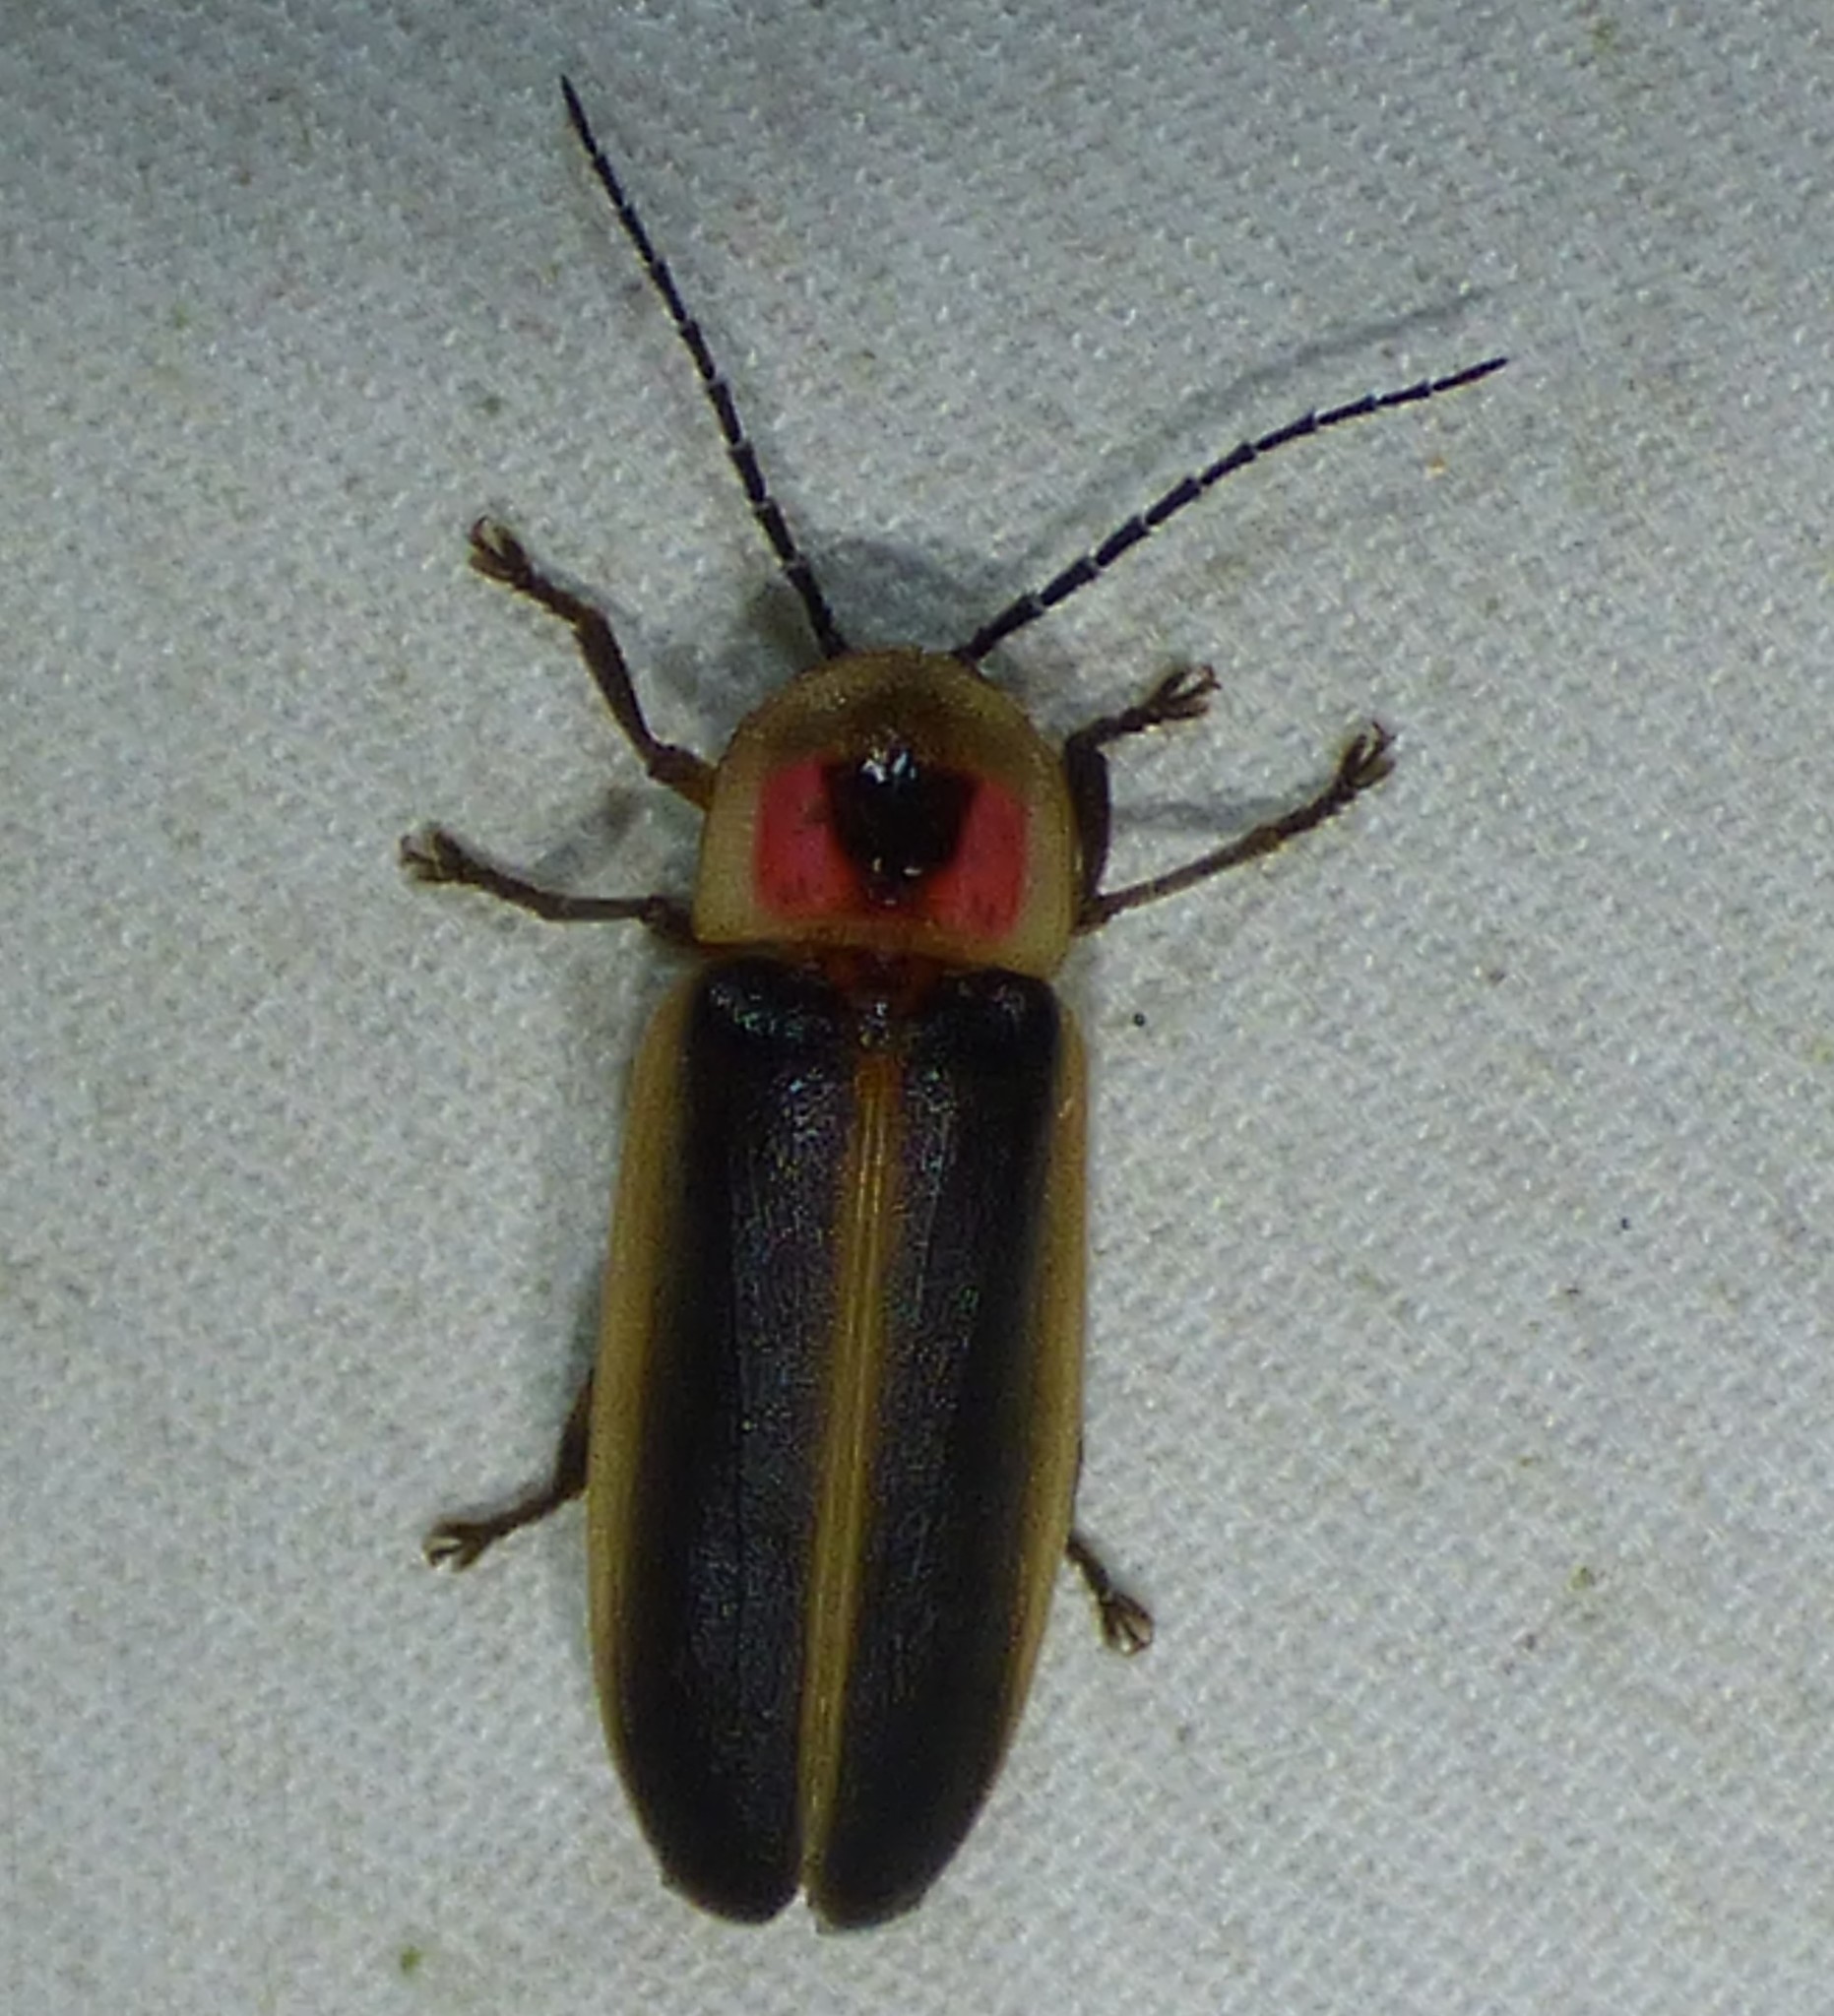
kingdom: Animalia
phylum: Arthropoda
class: Insecta
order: Coleoptera
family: Lampyridae
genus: Photinus
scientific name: Photinus pyralis
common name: Big dipper firefly
